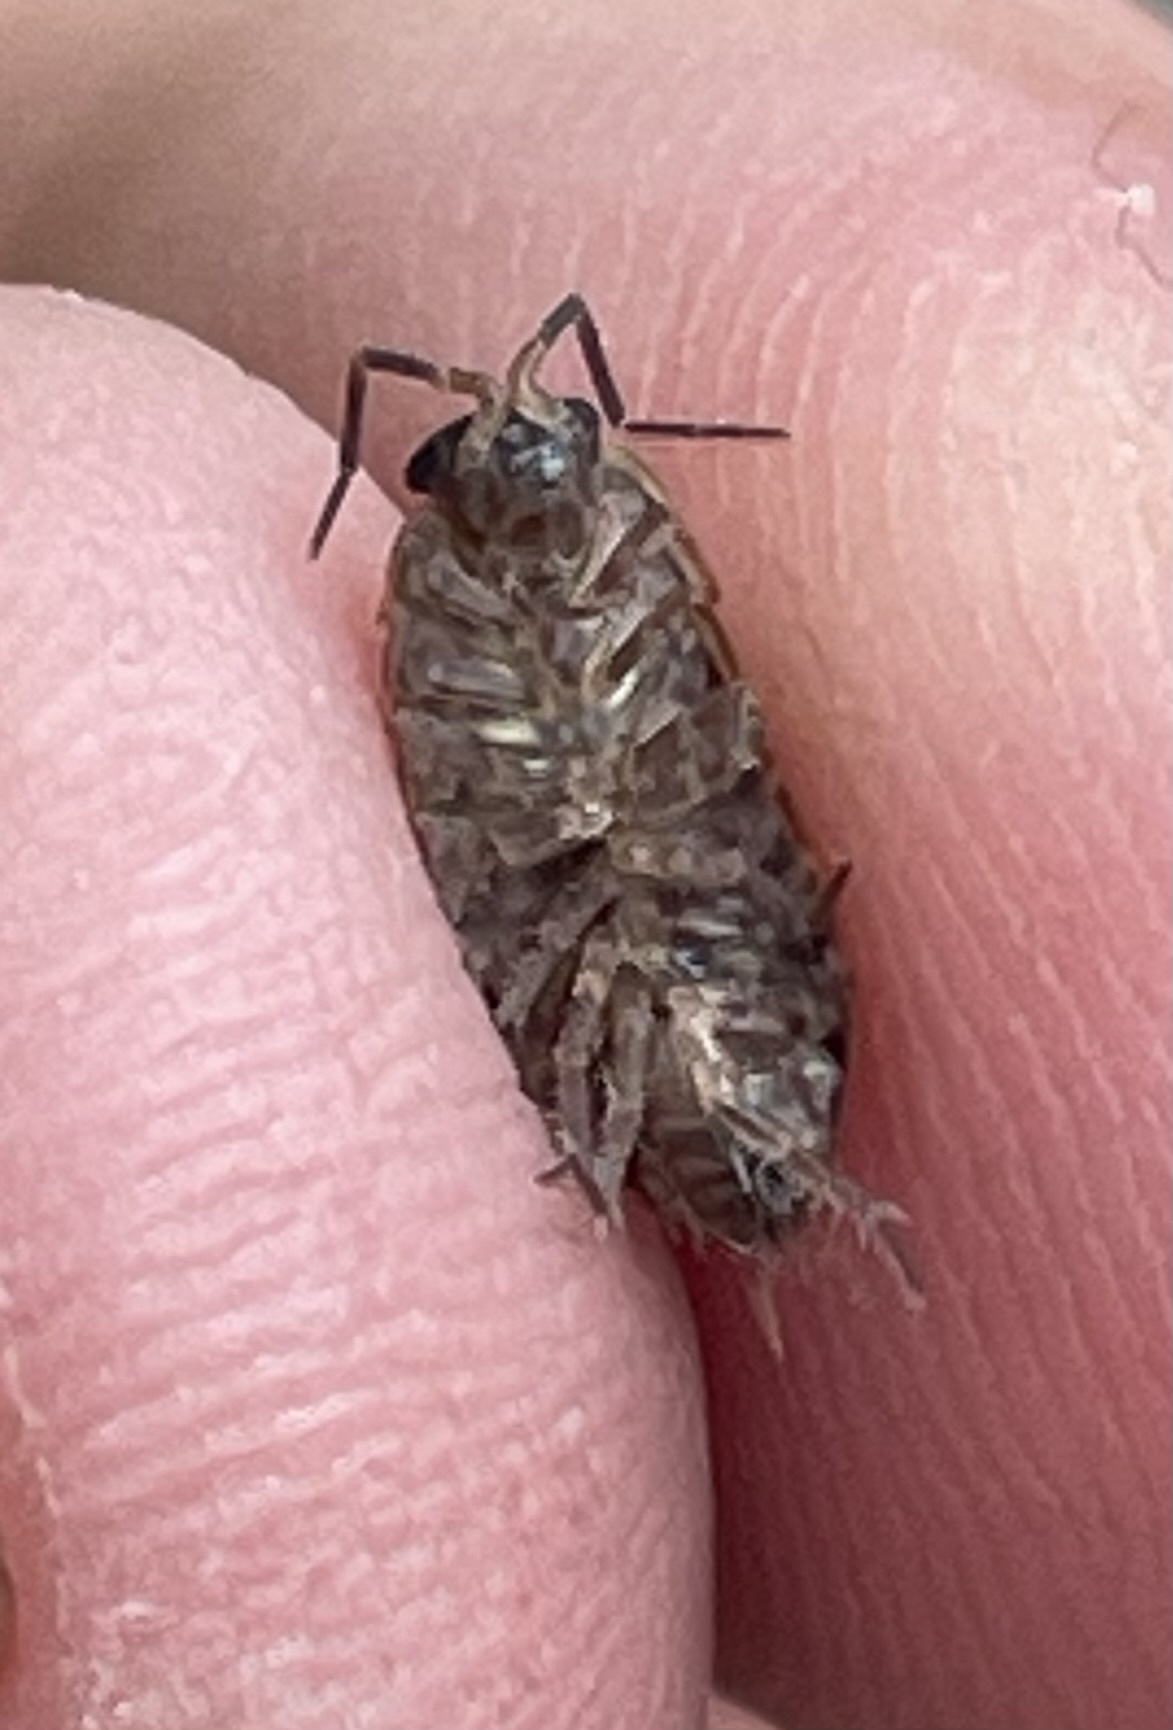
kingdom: Animalia
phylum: Arthropoda
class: Malacostraca
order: Isopoda
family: Philosciidae
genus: Philoscia
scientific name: Philoscia muscorum
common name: Common striped woodlouse
